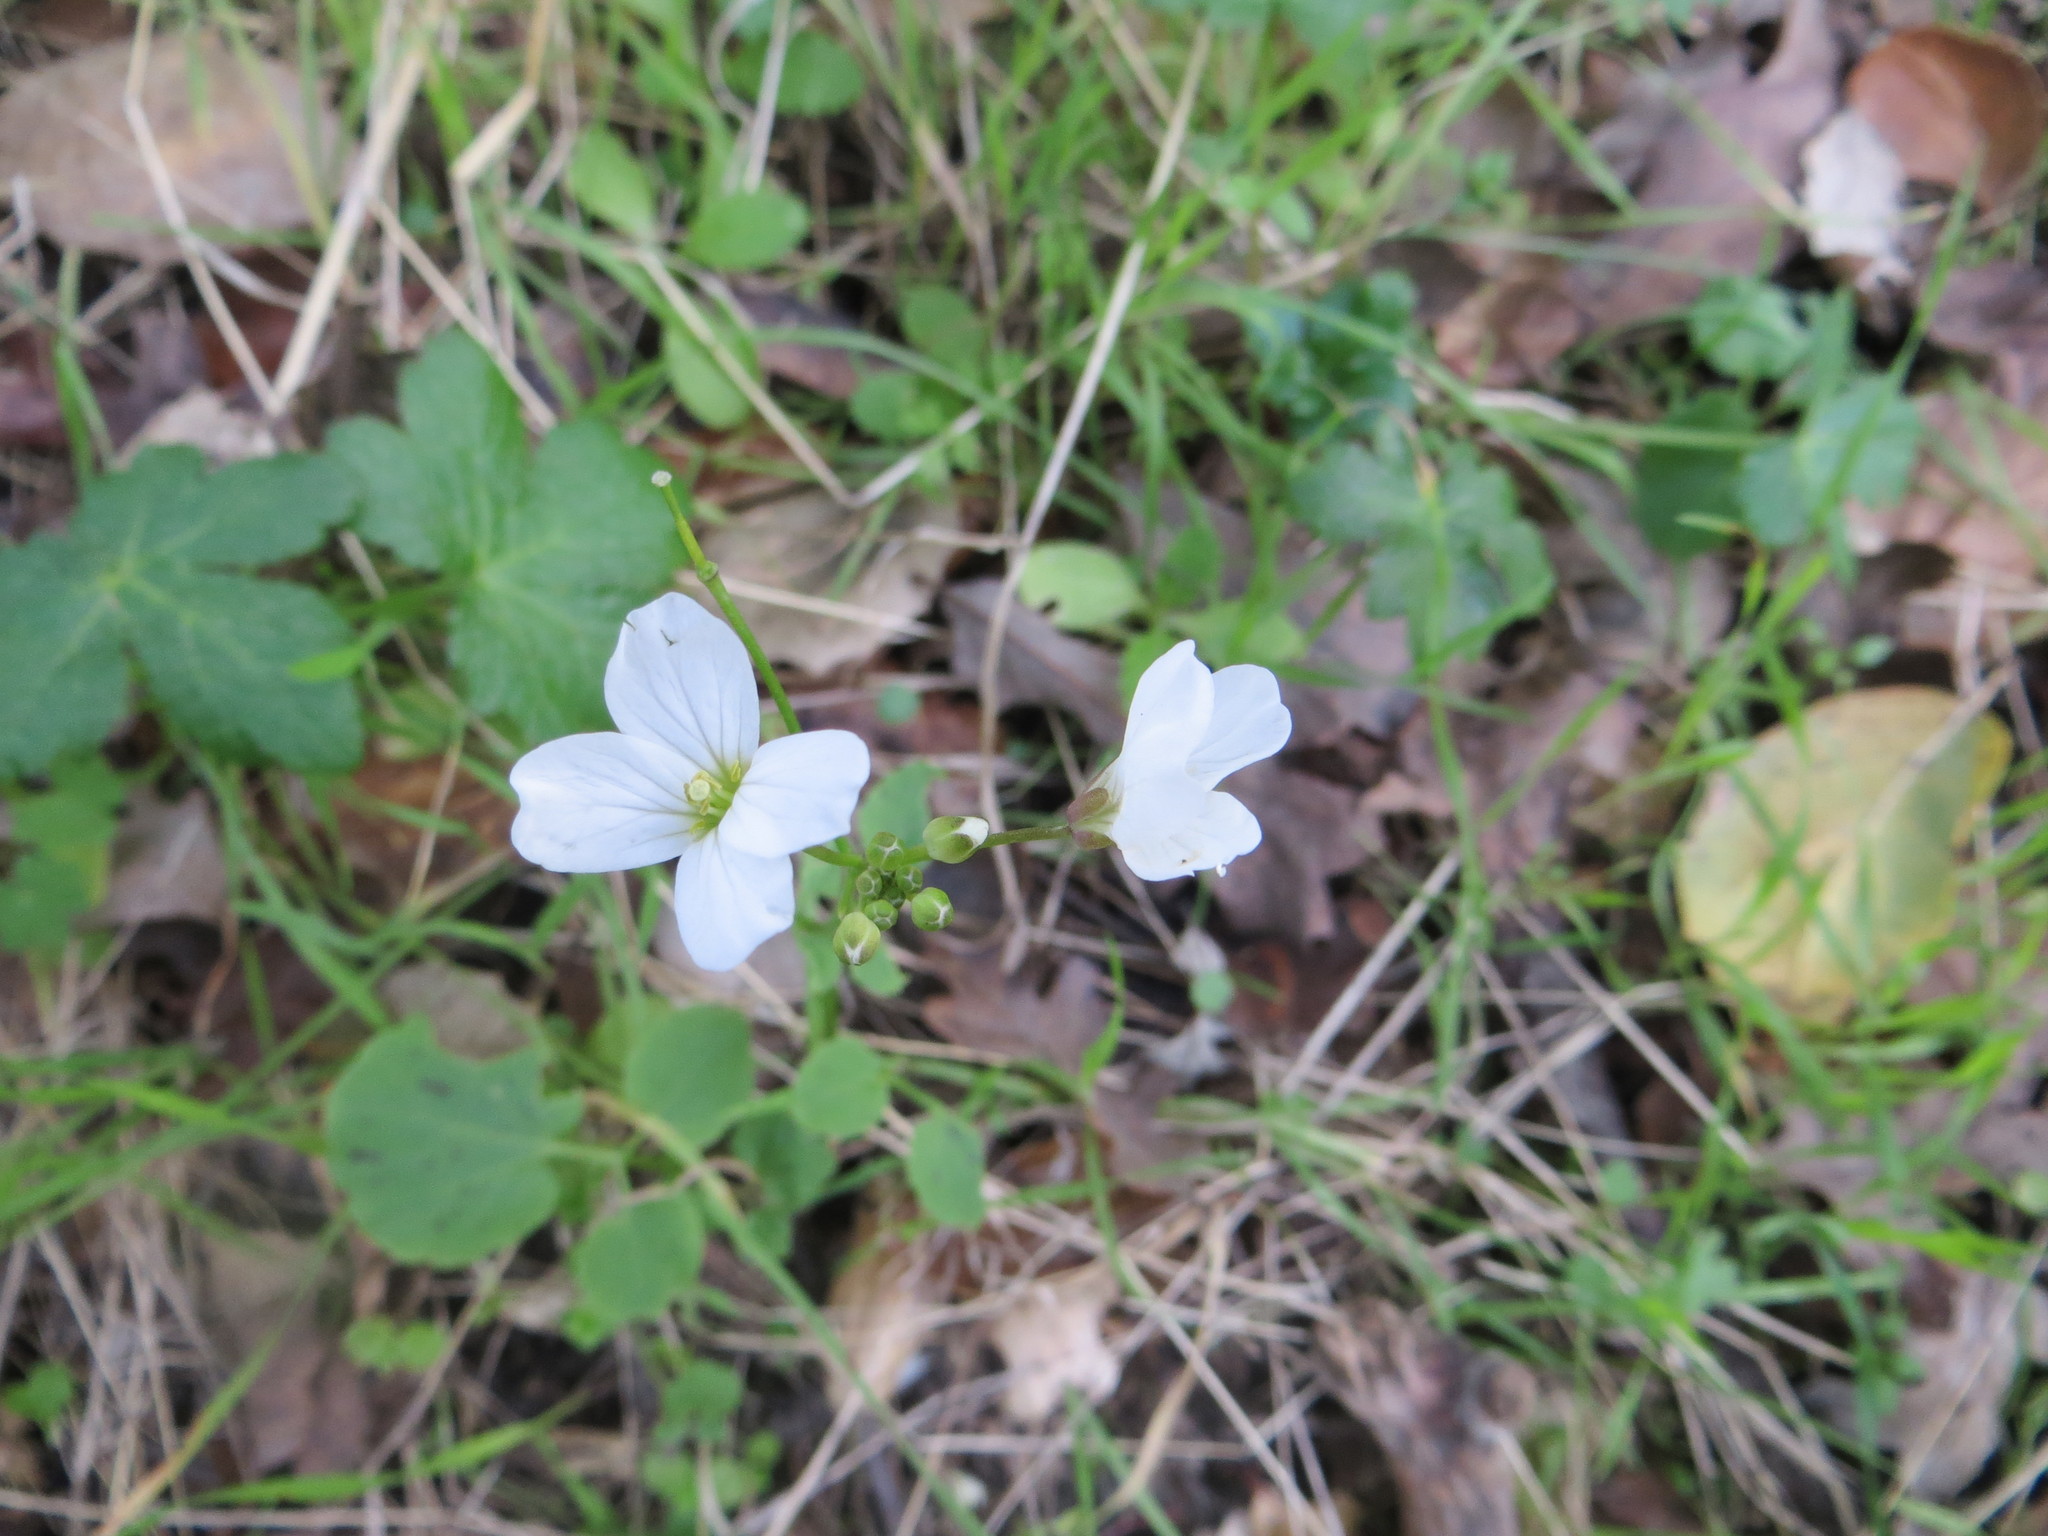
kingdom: Plantae
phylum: Tracheophyta
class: Magnoliopsida
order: Brassicales
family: Brassicaceae
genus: Cardamine
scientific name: Cardamine californica
